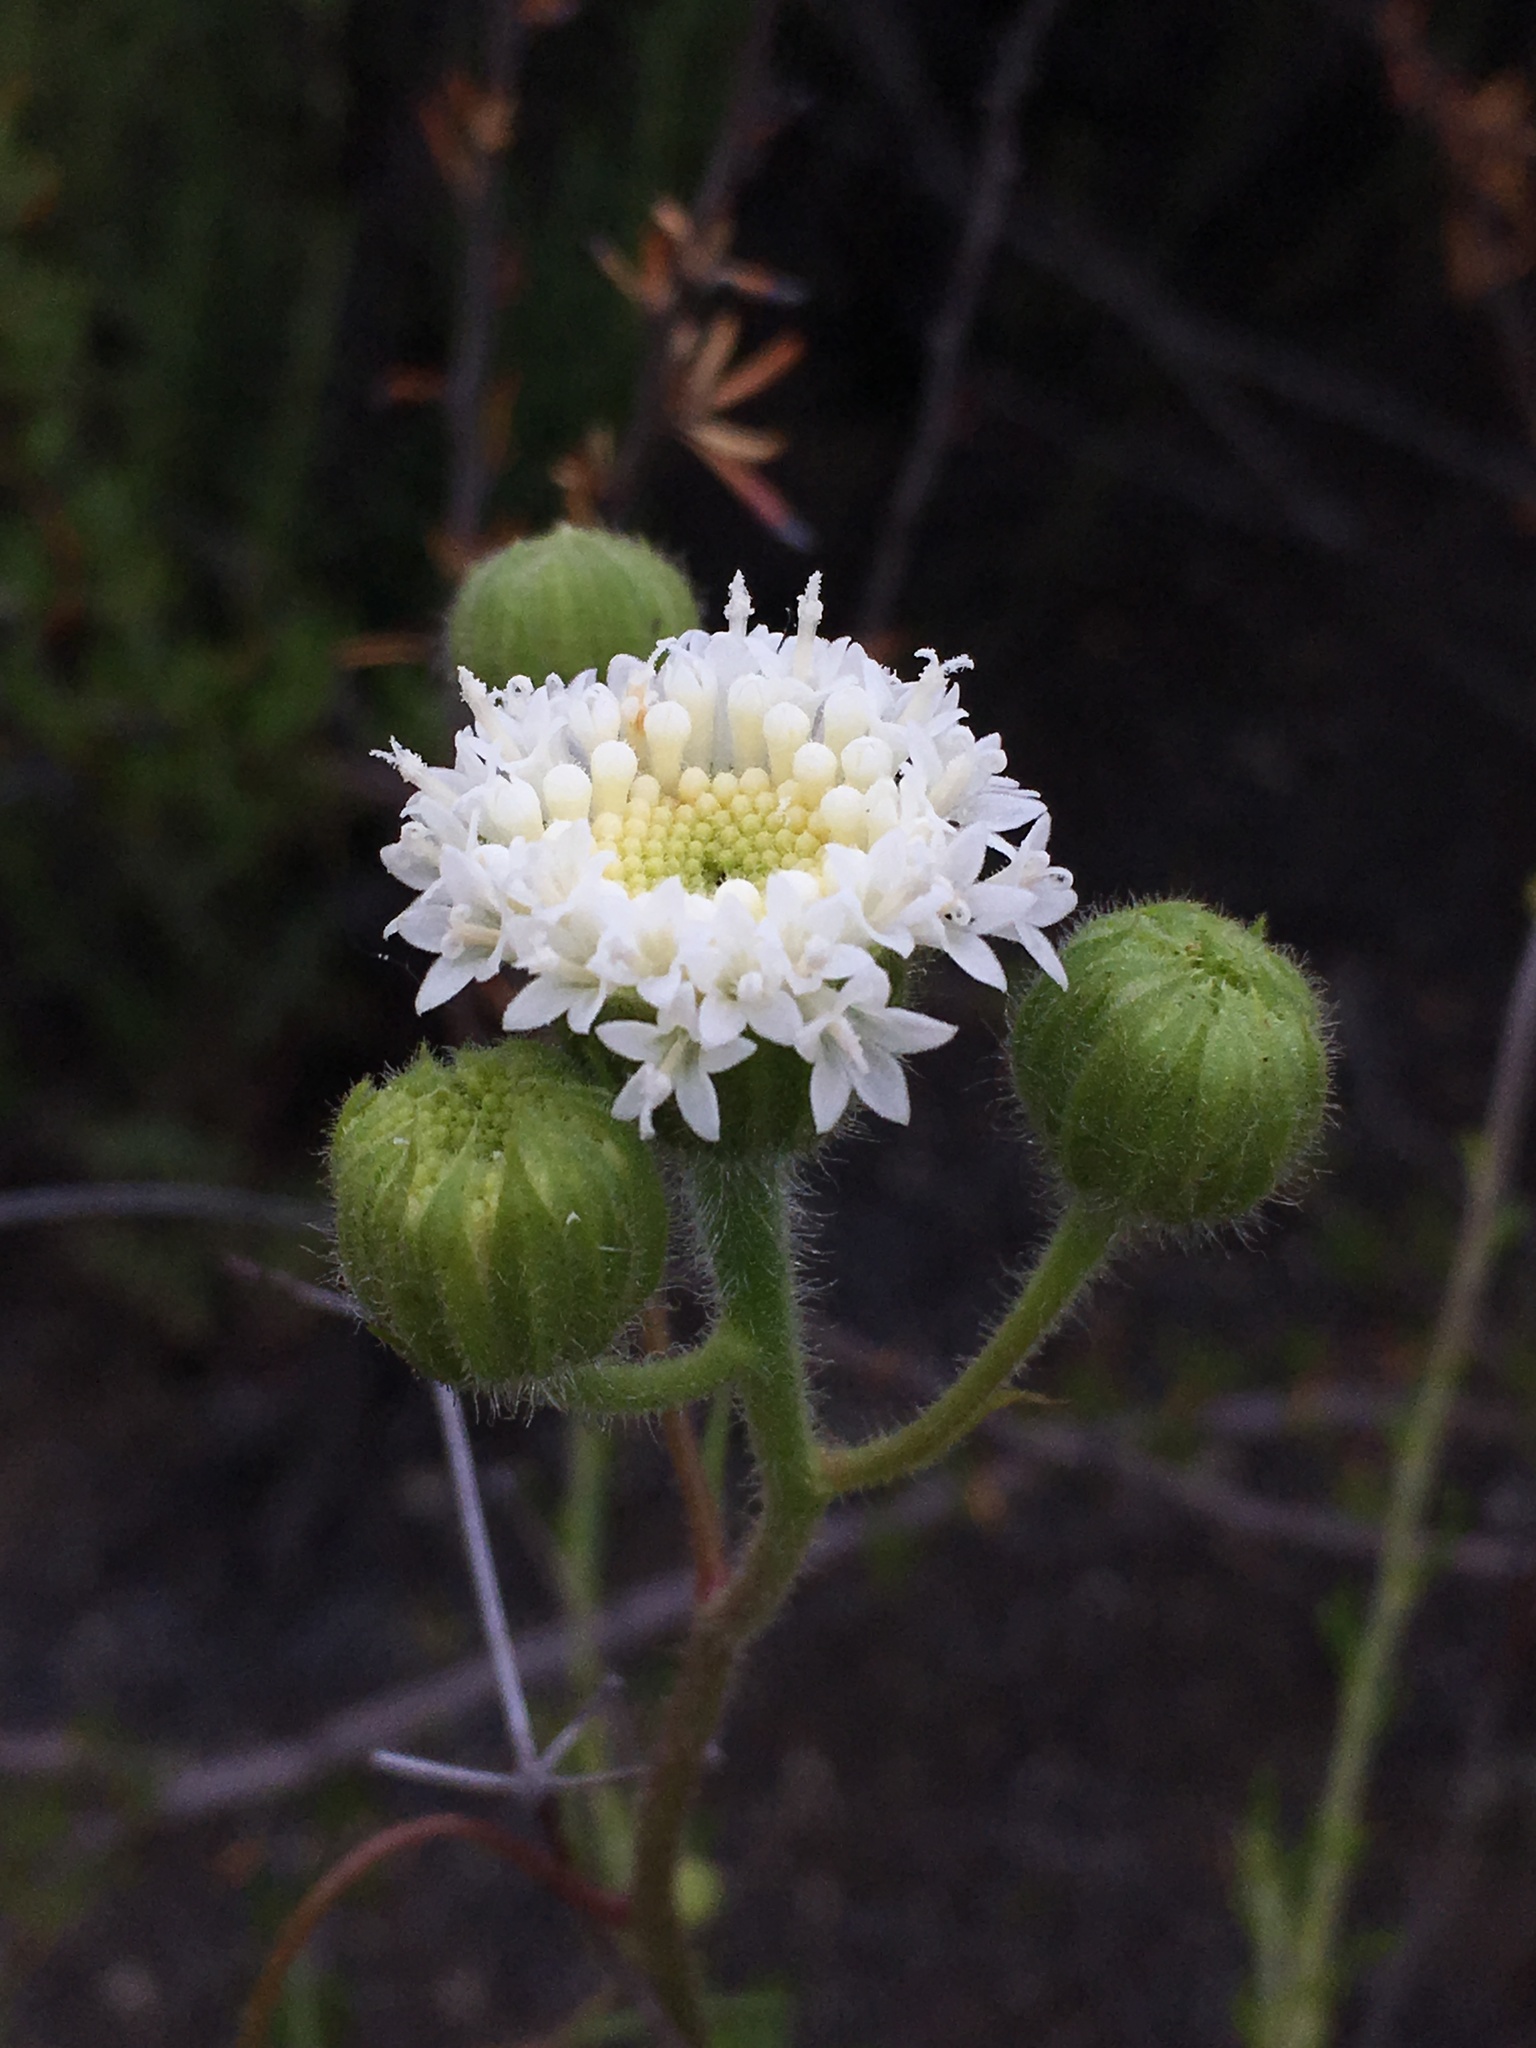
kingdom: Plantae
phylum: Tracheophyta
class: Magnoliopsida
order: Asterales
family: Asteraceae
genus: Chaenactis
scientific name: Chaenactis artemisiifolia
